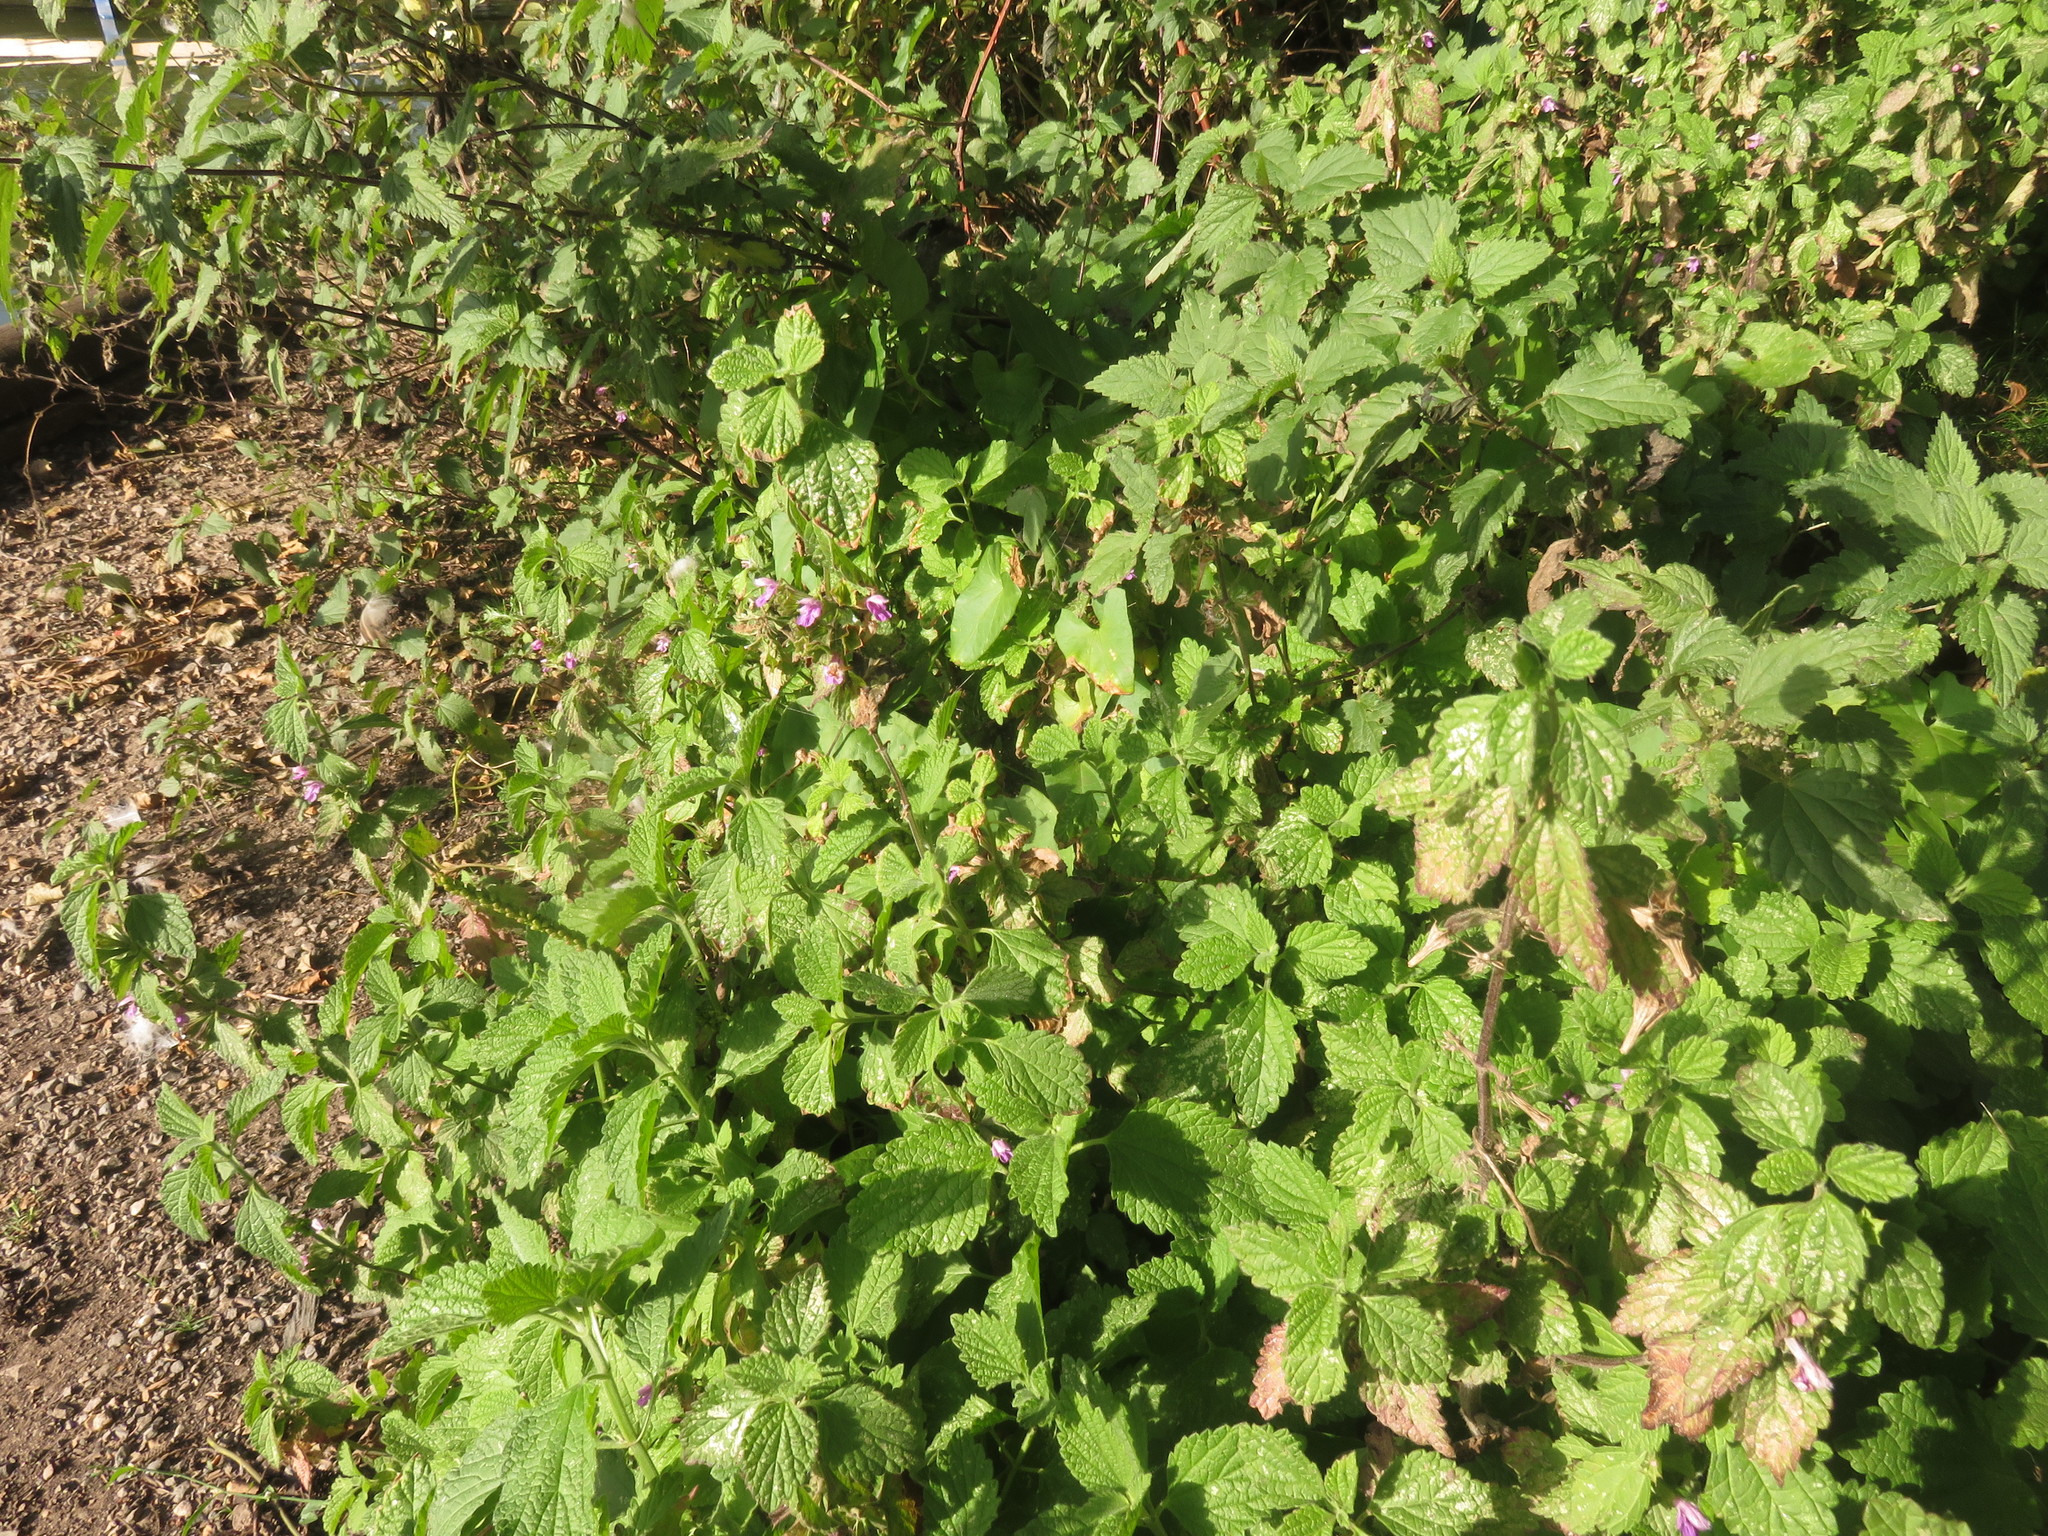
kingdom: Plantae
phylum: Tracheophyta
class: Magnoliopsida
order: Lamiales
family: Lamiaceae
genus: Ballota
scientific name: Ballota nigra
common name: Black horehound
